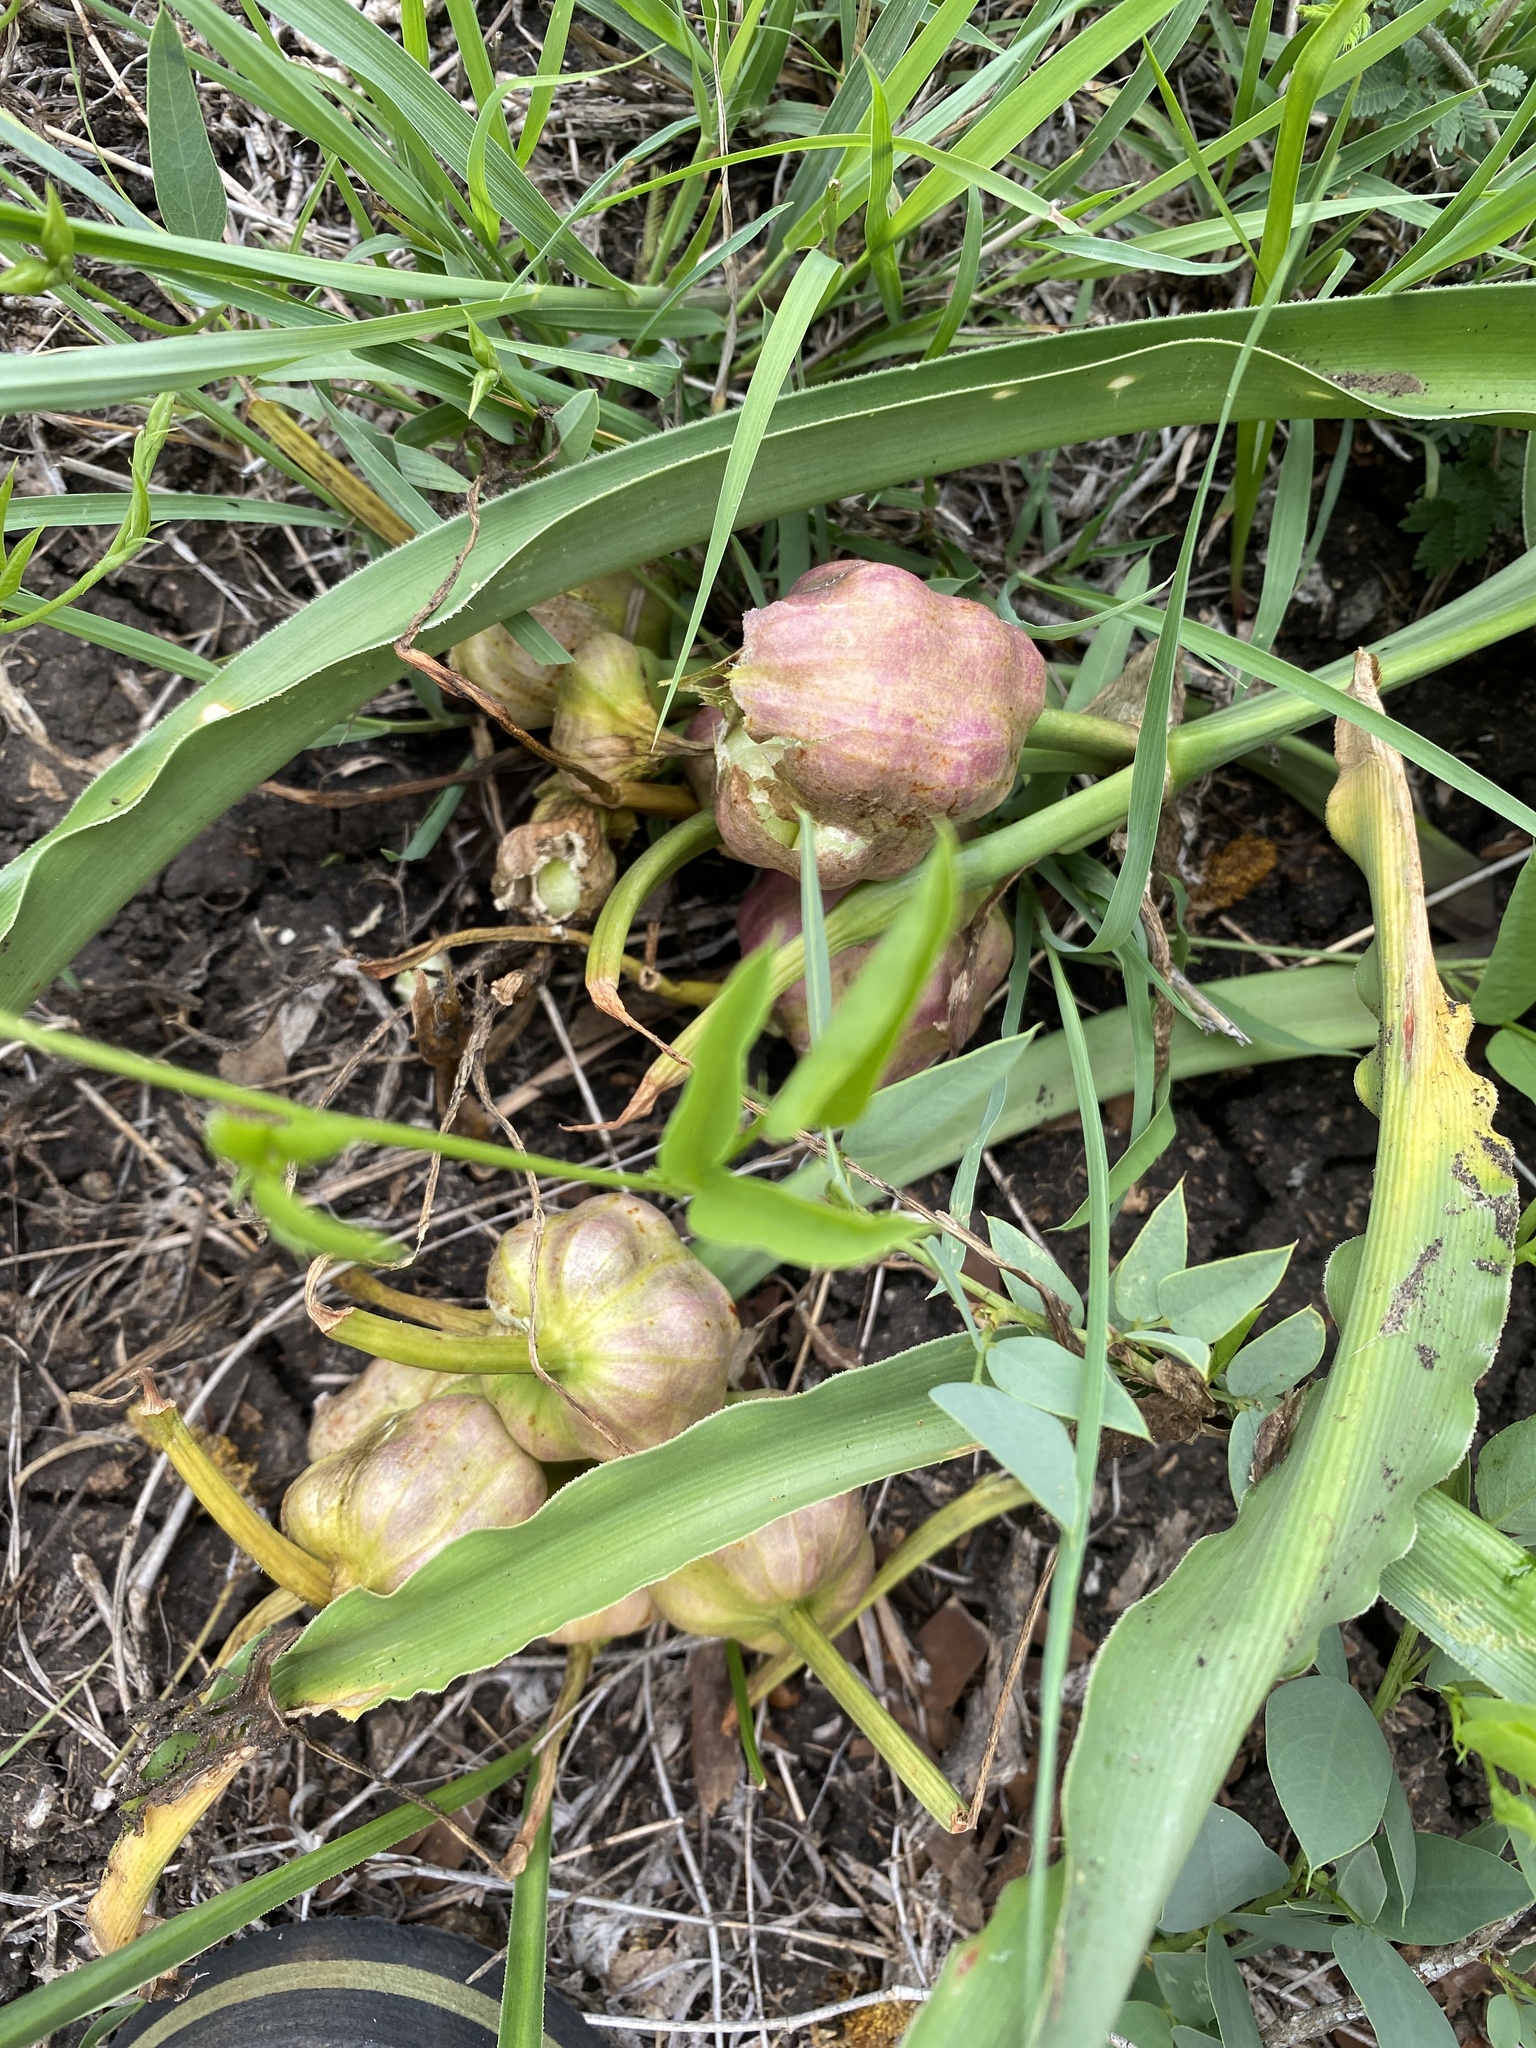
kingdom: Plantae
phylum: Tracheophyta
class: Liliopsida
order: Asparagales
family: Amaryllidaceae
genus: Crinum
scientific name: Crinum macowanii
